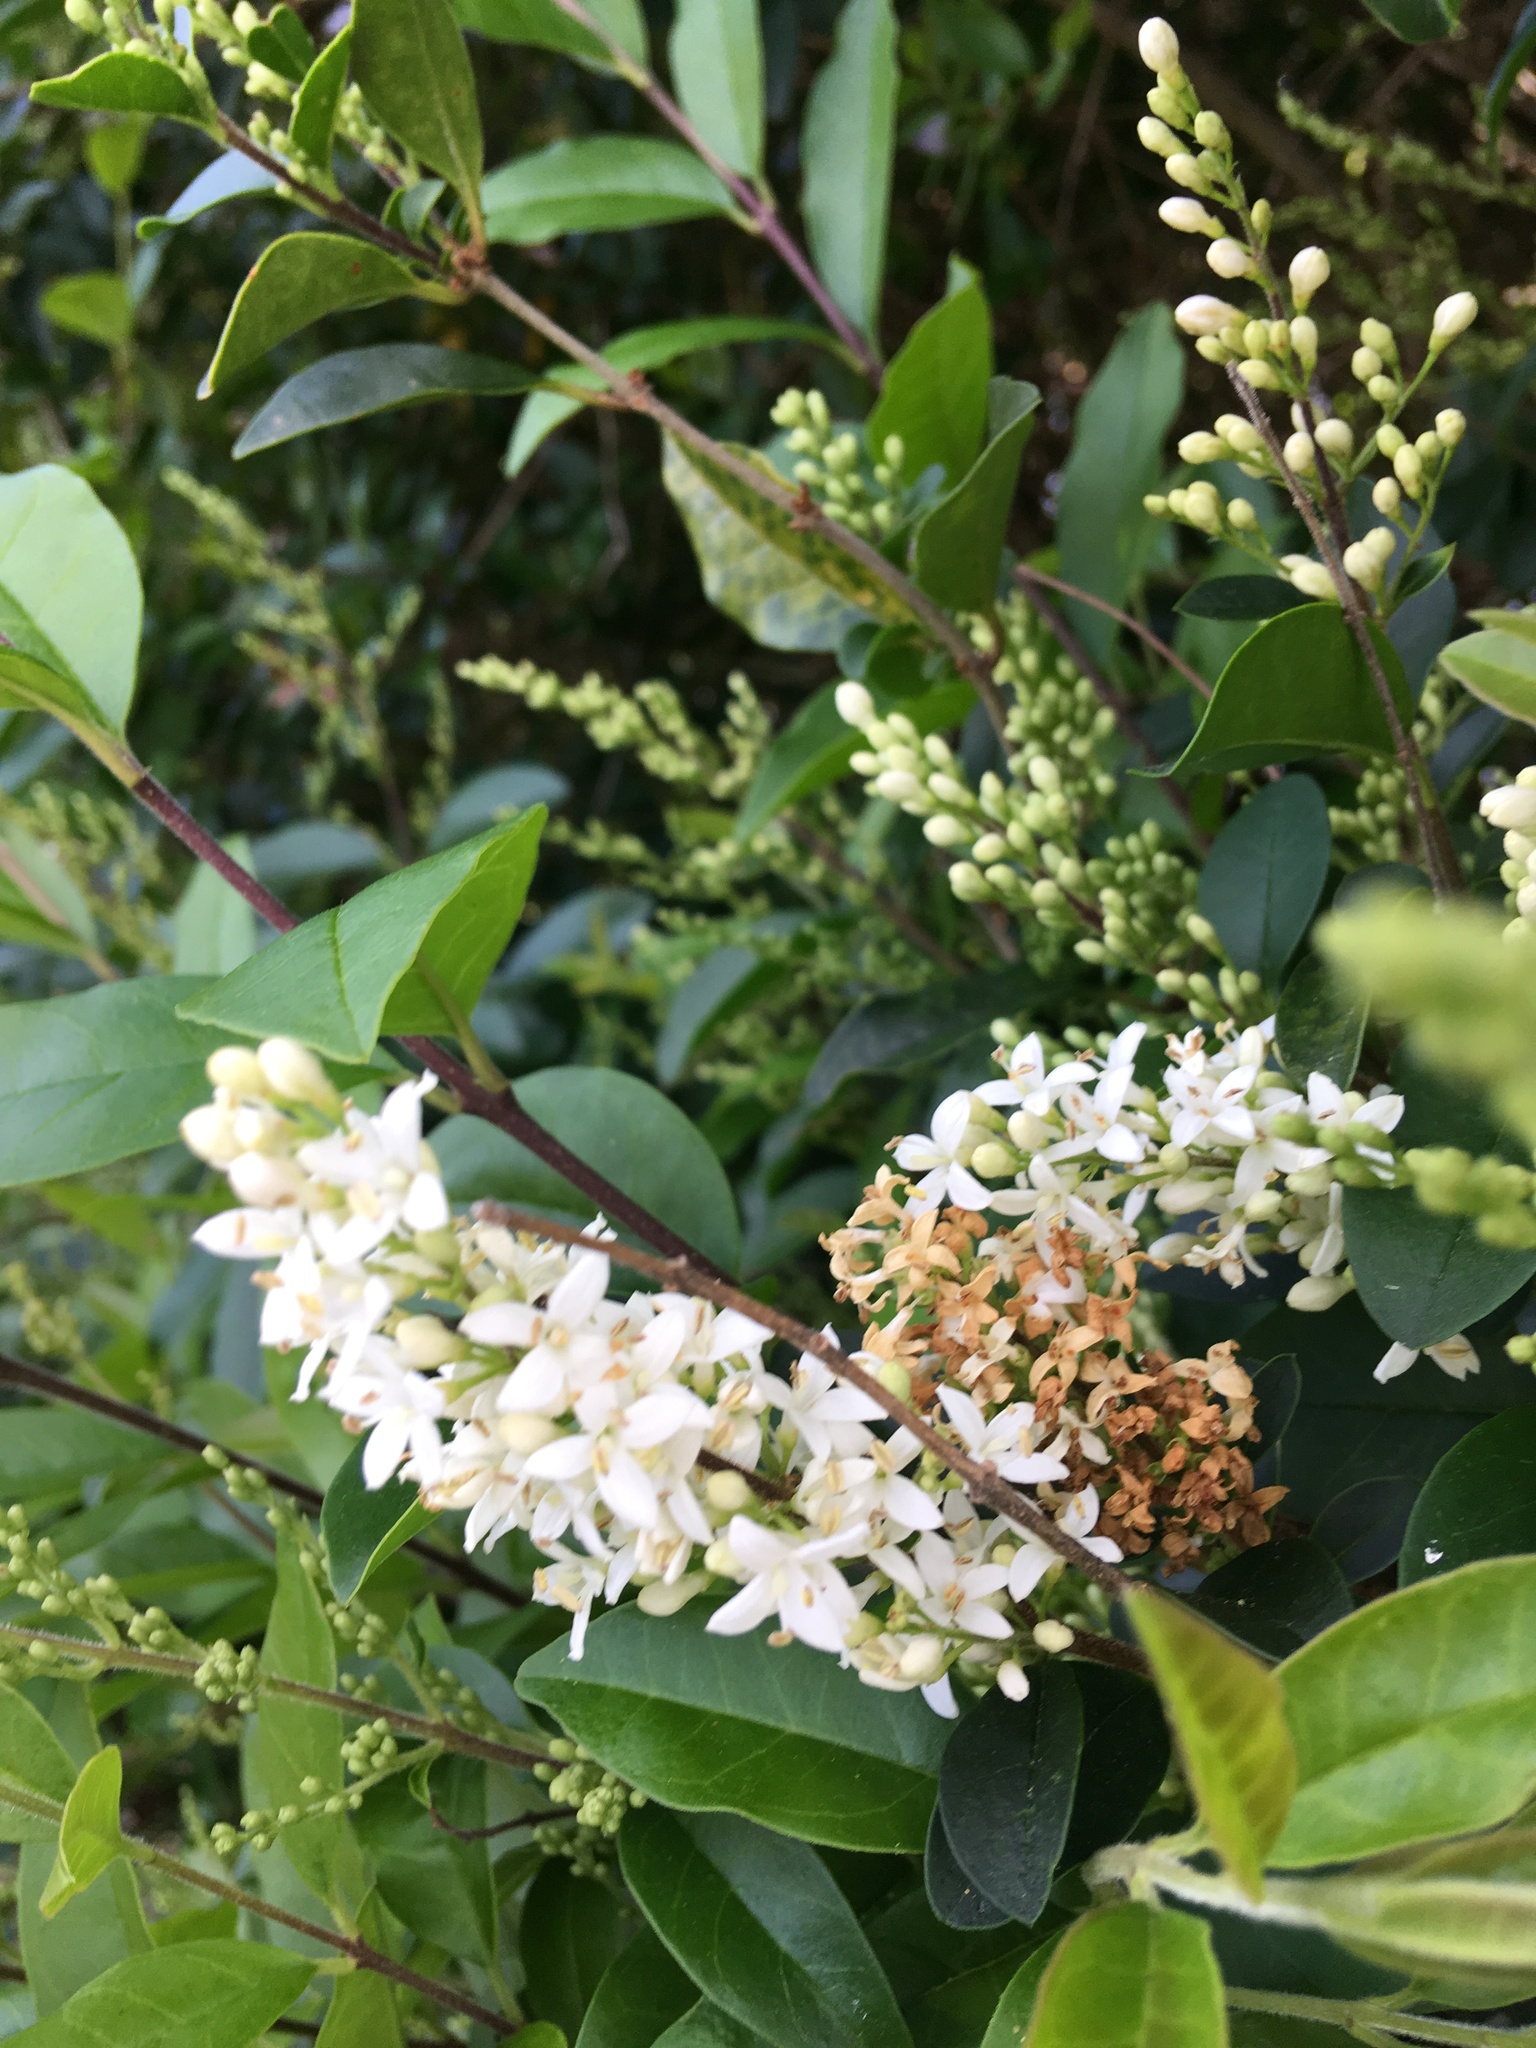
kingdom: Plantae
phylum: Tracheophyta
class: Magnoliopsida
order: Lamiales
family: Oleaceae
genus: Ligustrum
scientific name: Ligustrum sinense
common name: Chinese privet
